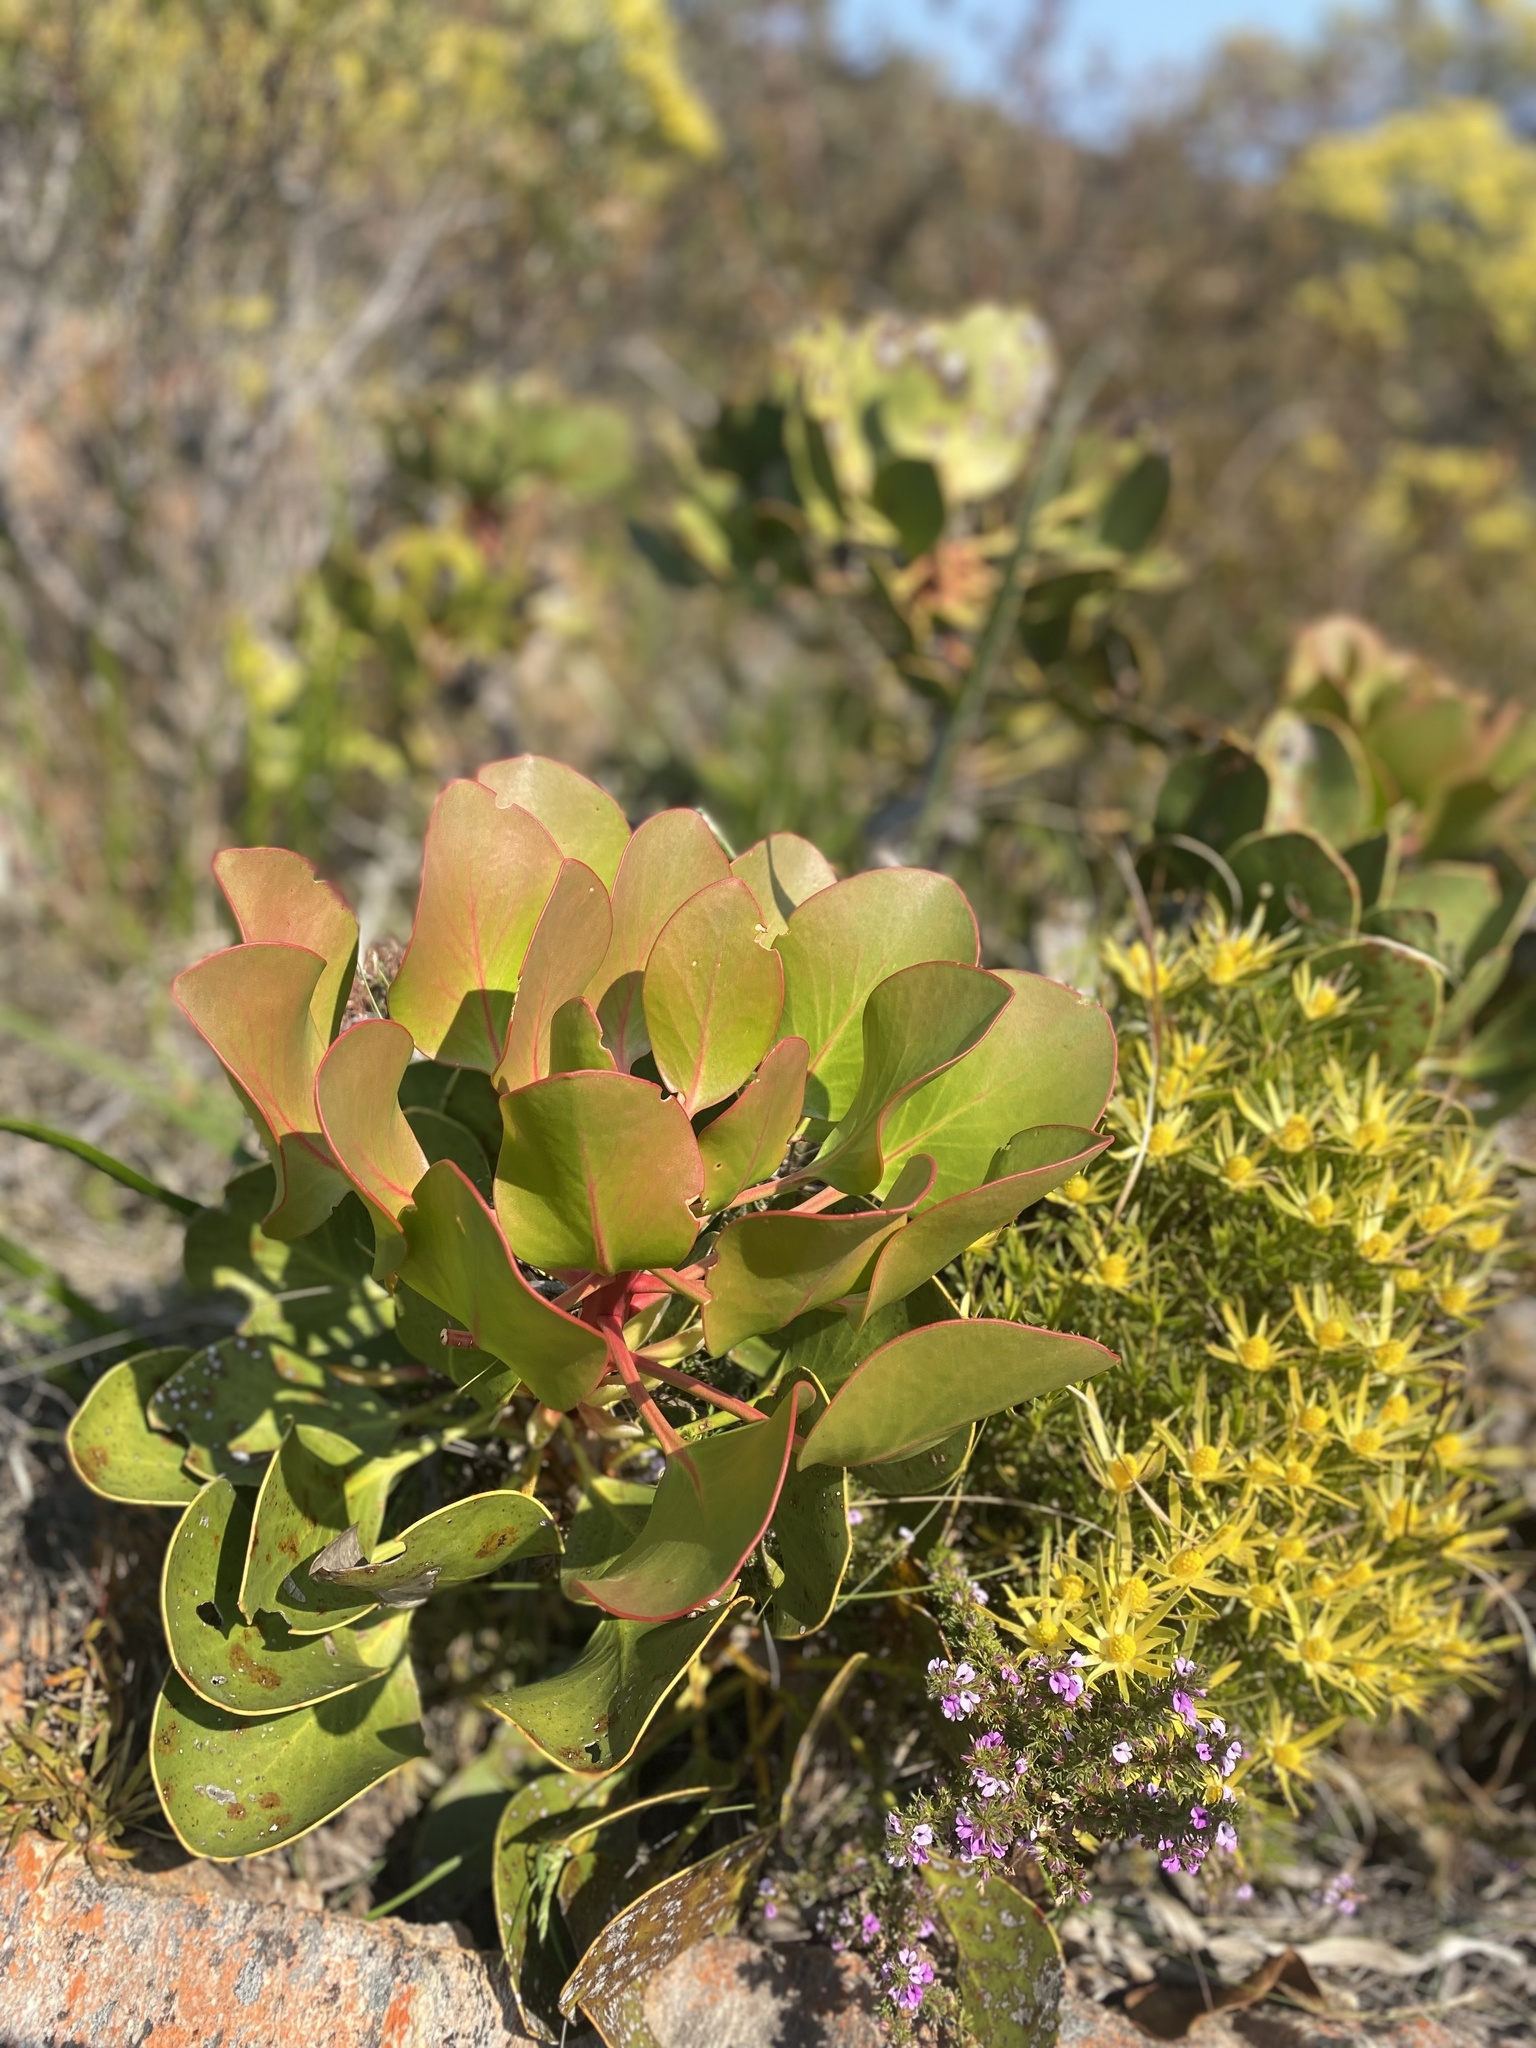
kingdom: Plantae
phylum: Tracheophyta
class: Magnoliopsida
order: Proteales
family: Proteaceae
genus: Protea
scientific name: Protea cynaroides
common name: King protea
